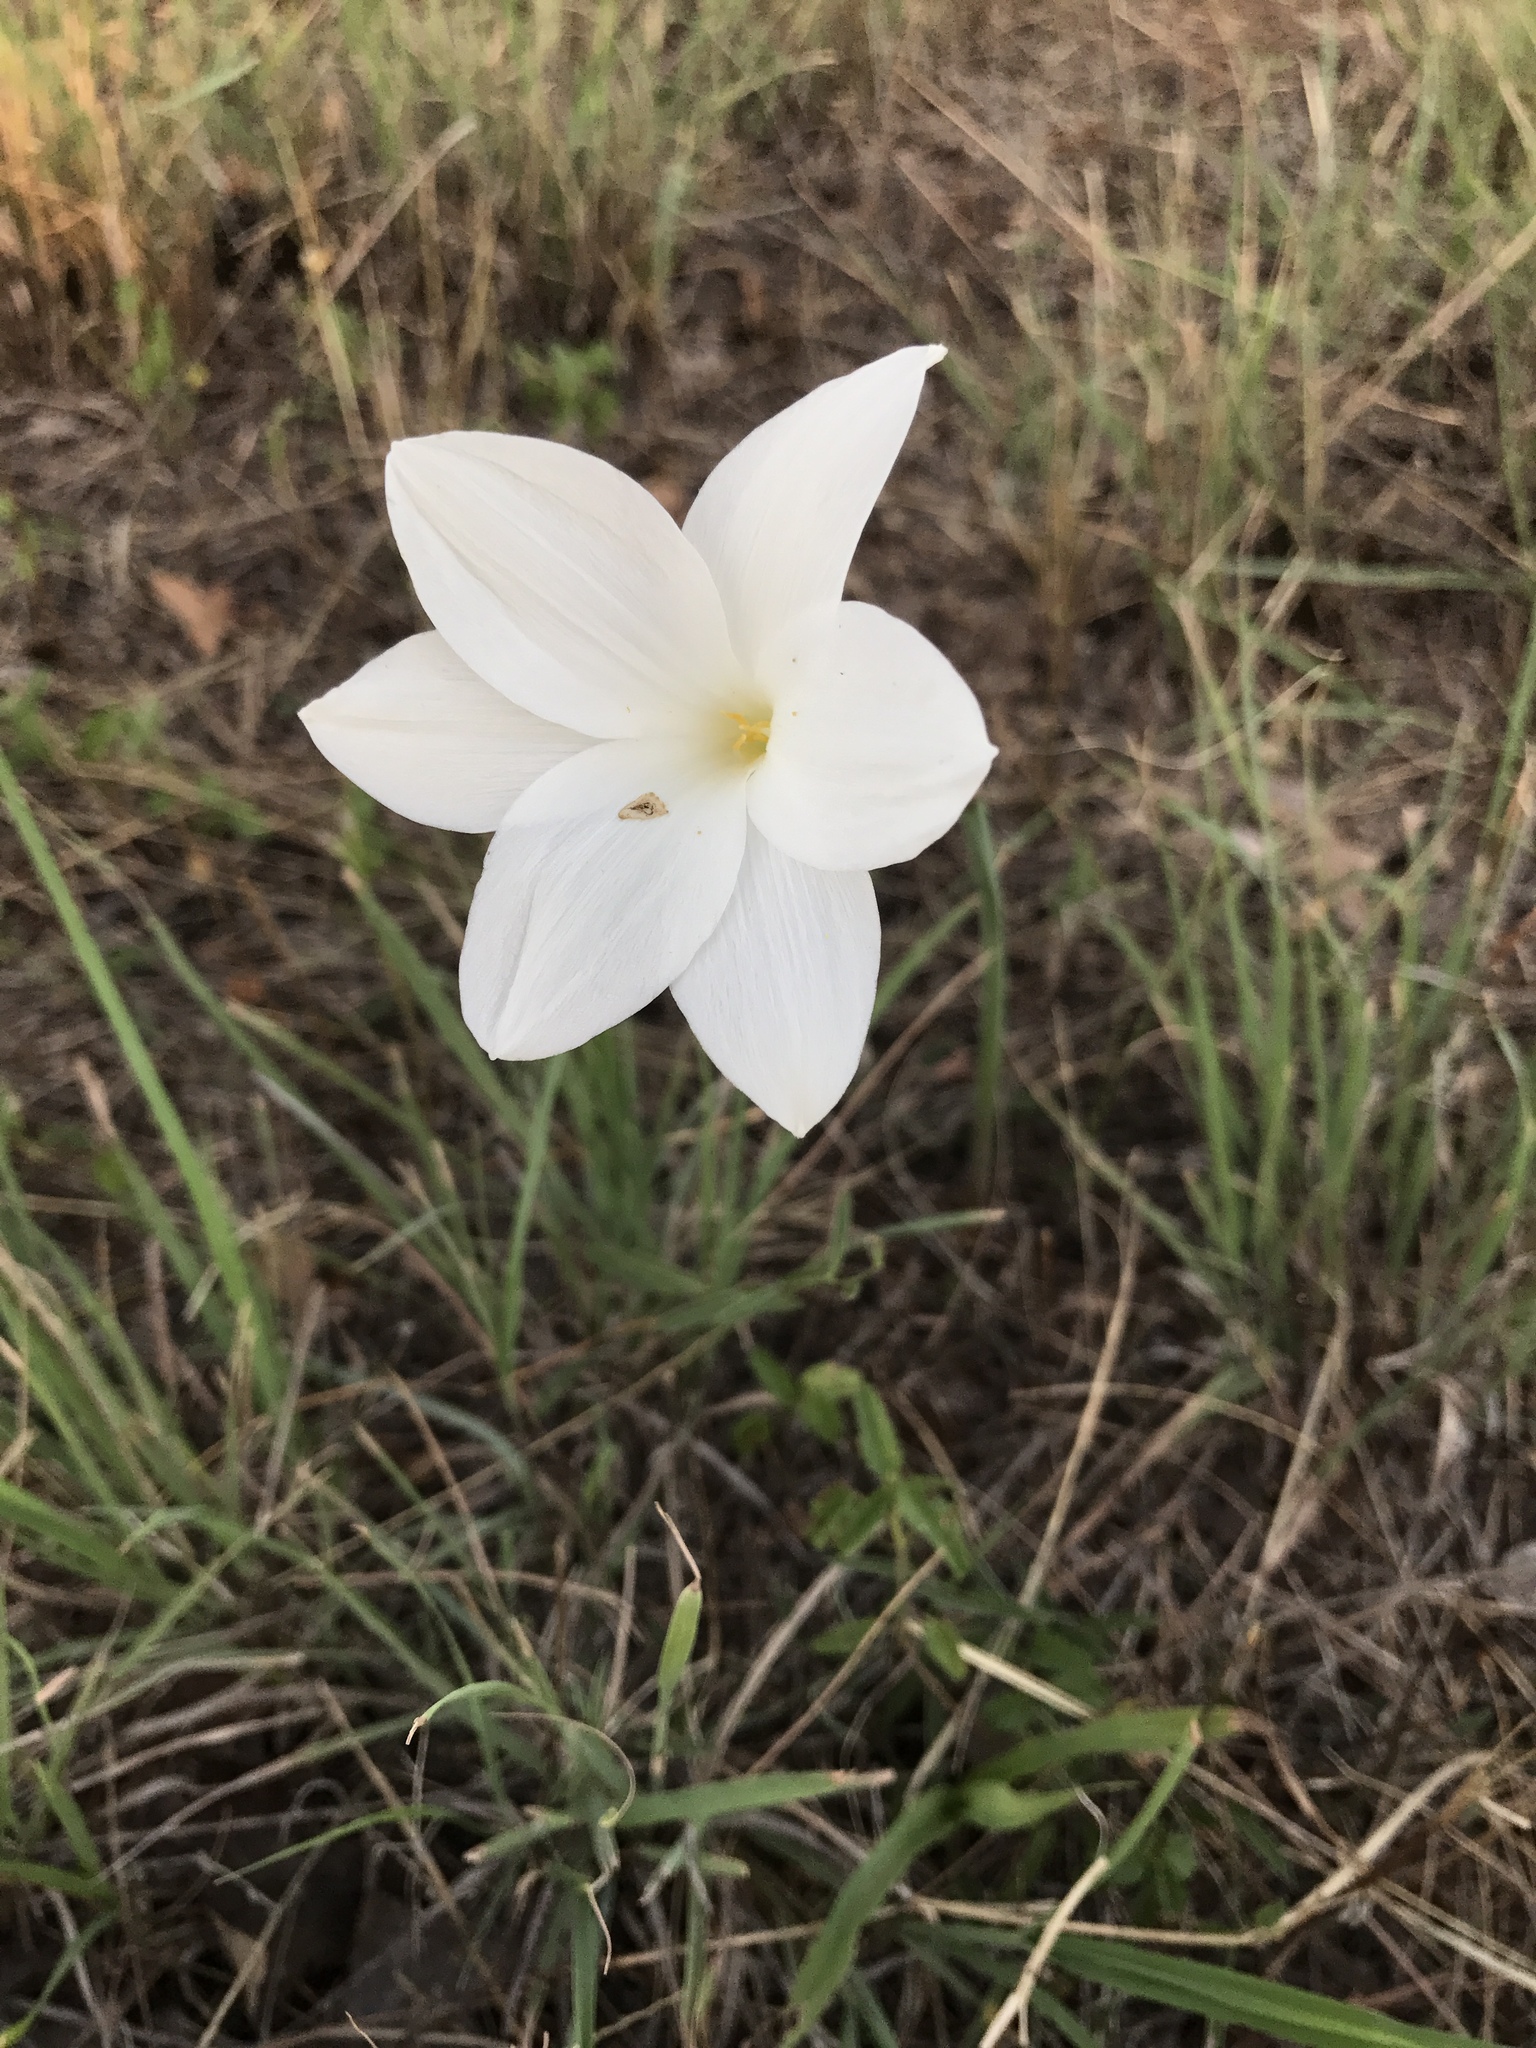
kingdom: Plantae
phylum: Tracheophyta
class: Liliopsida
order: Asparagales
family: Amaryllidaceae
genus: Zephyranthes
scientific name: Zephyranthes drummondii
